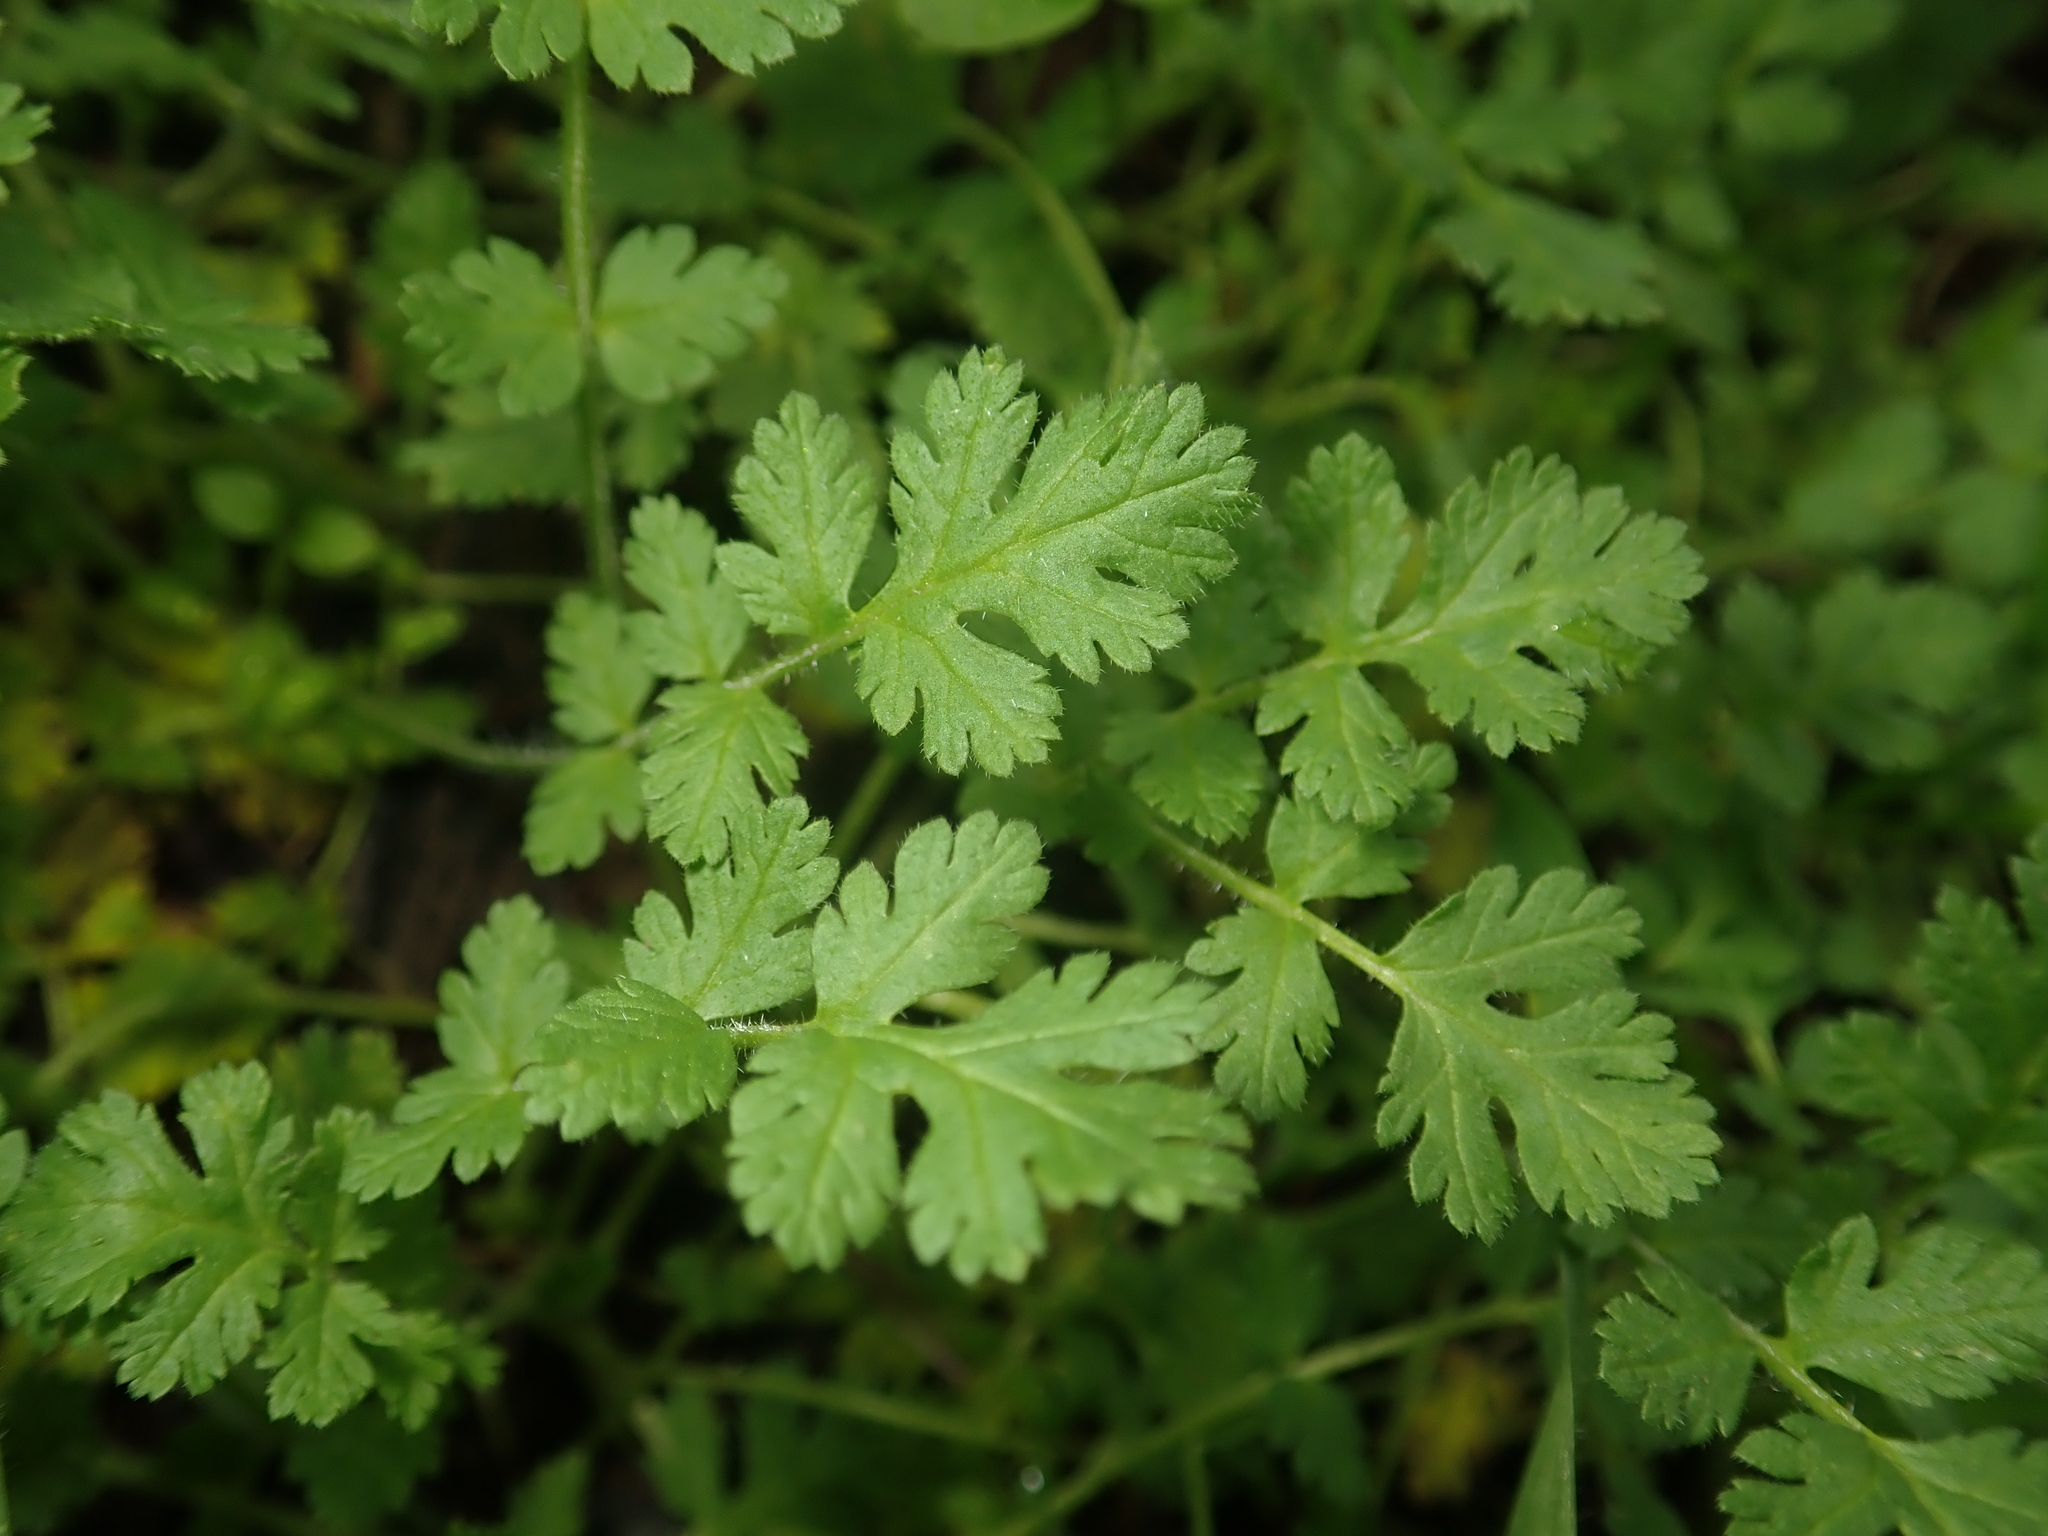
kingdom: Plantae
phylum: Tracheophyta
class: Magnoliopsida
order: Geraniales
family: Geraniaceae
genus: Erodium
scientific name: Erodium cicutarium
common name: Common stork's-bill
